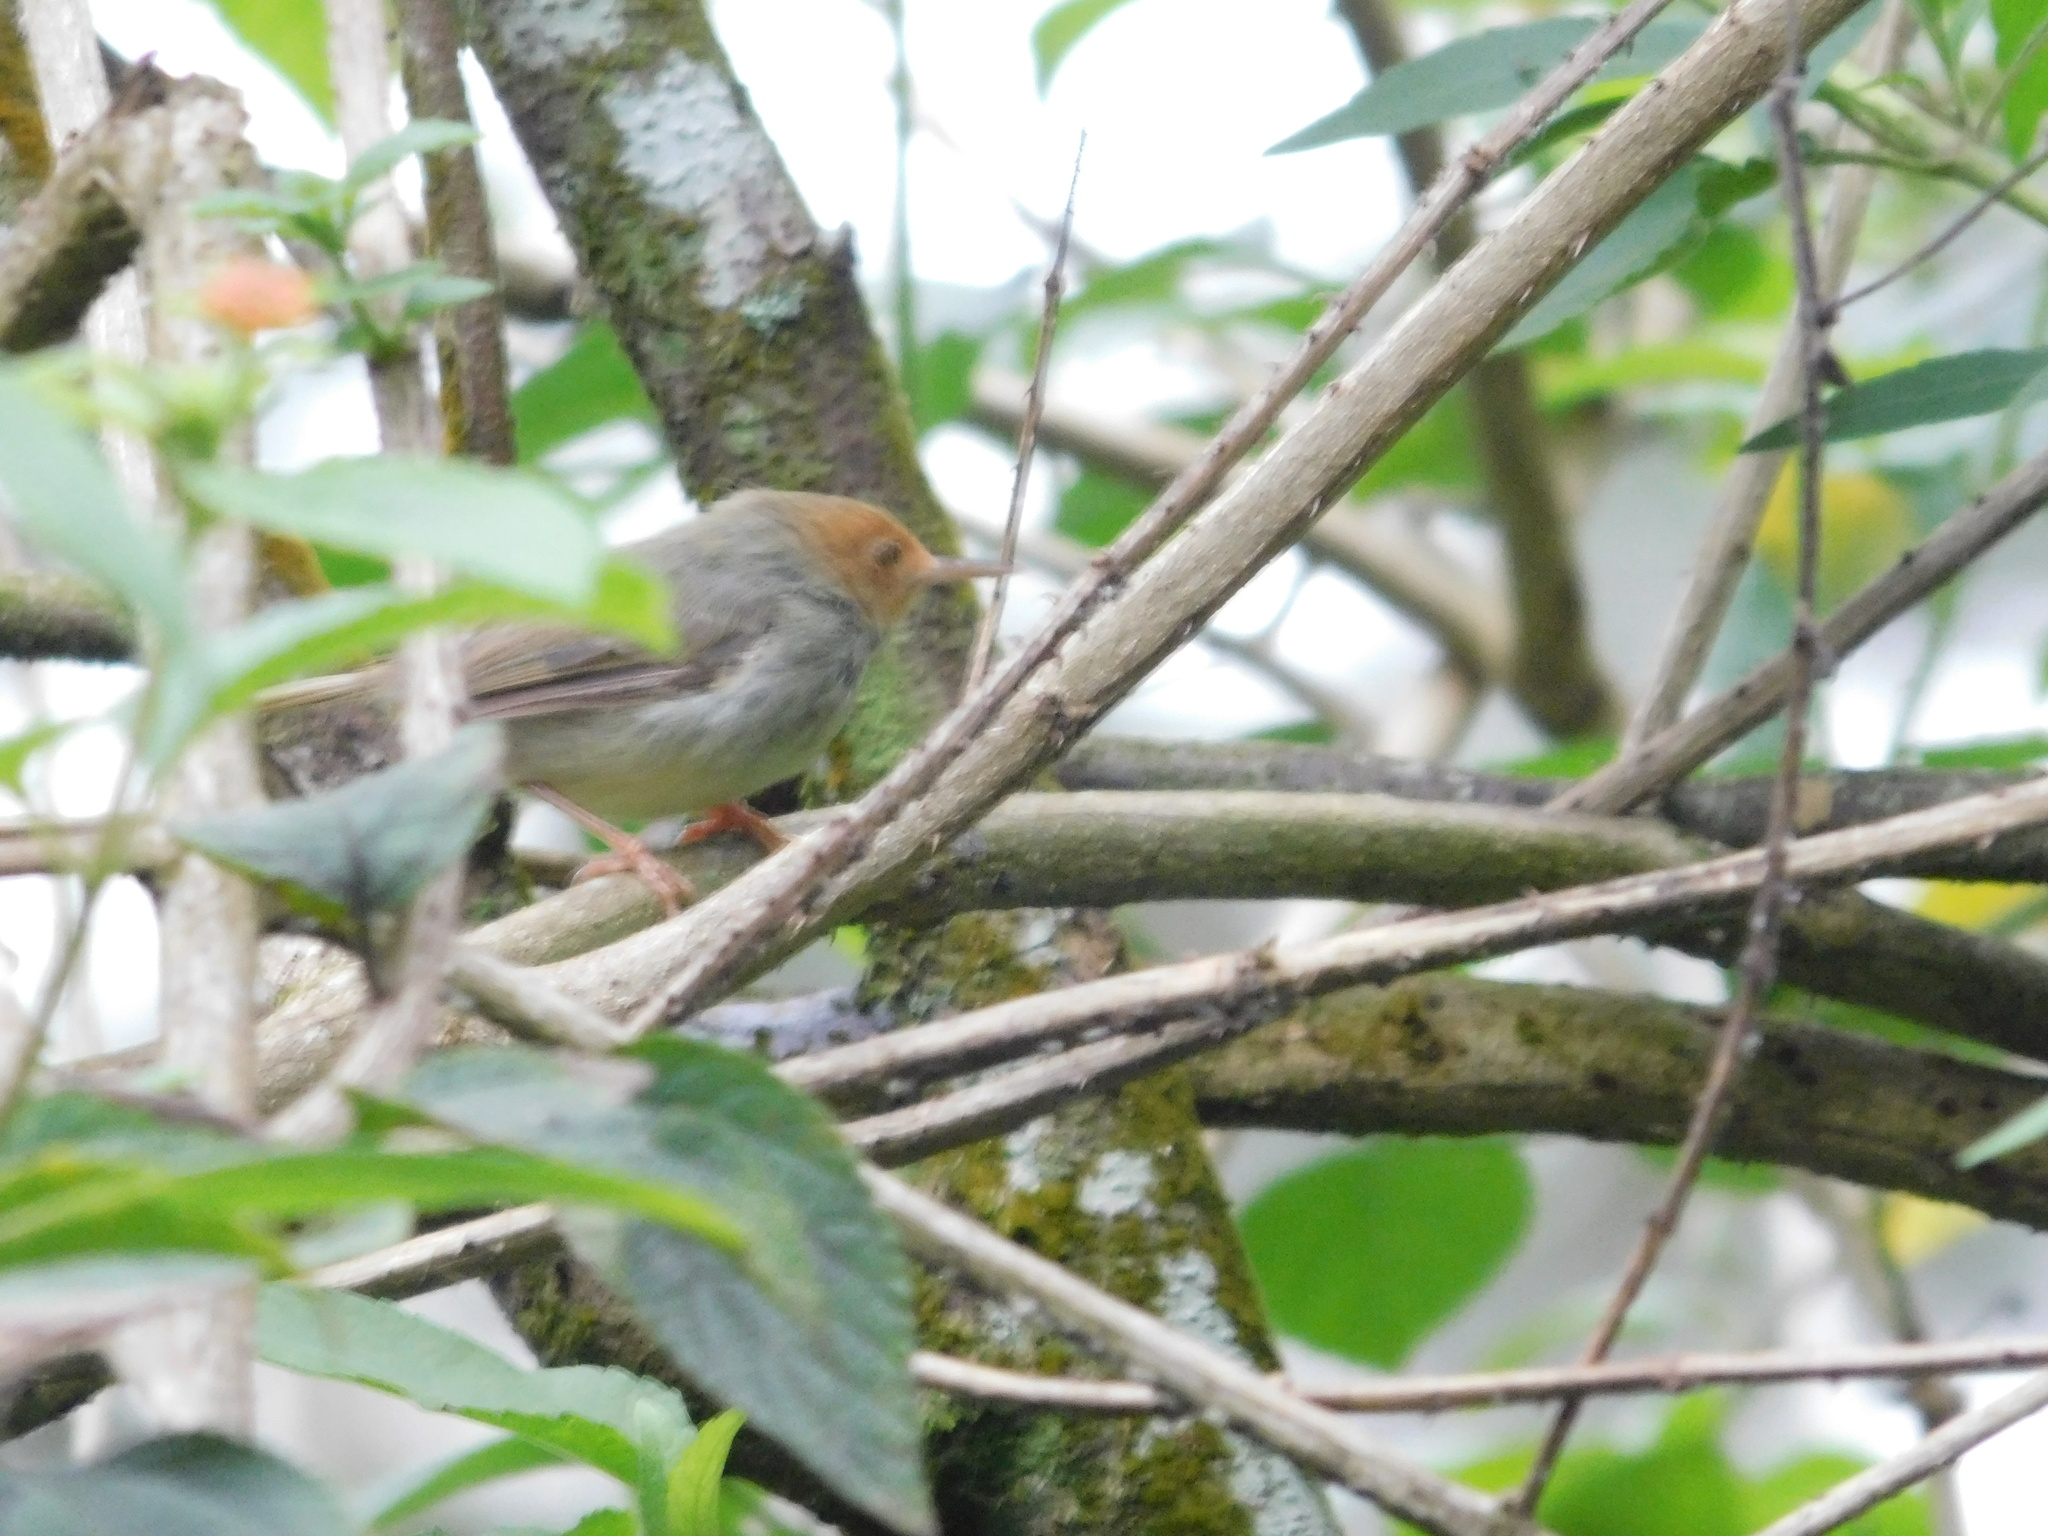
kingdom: Animalia
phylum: Chordata
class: Aves
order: Passeriformes
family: Cisticolidae
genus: Orthotomus
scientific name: Orthotomus sepium
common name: Olive-backed tailorbird
